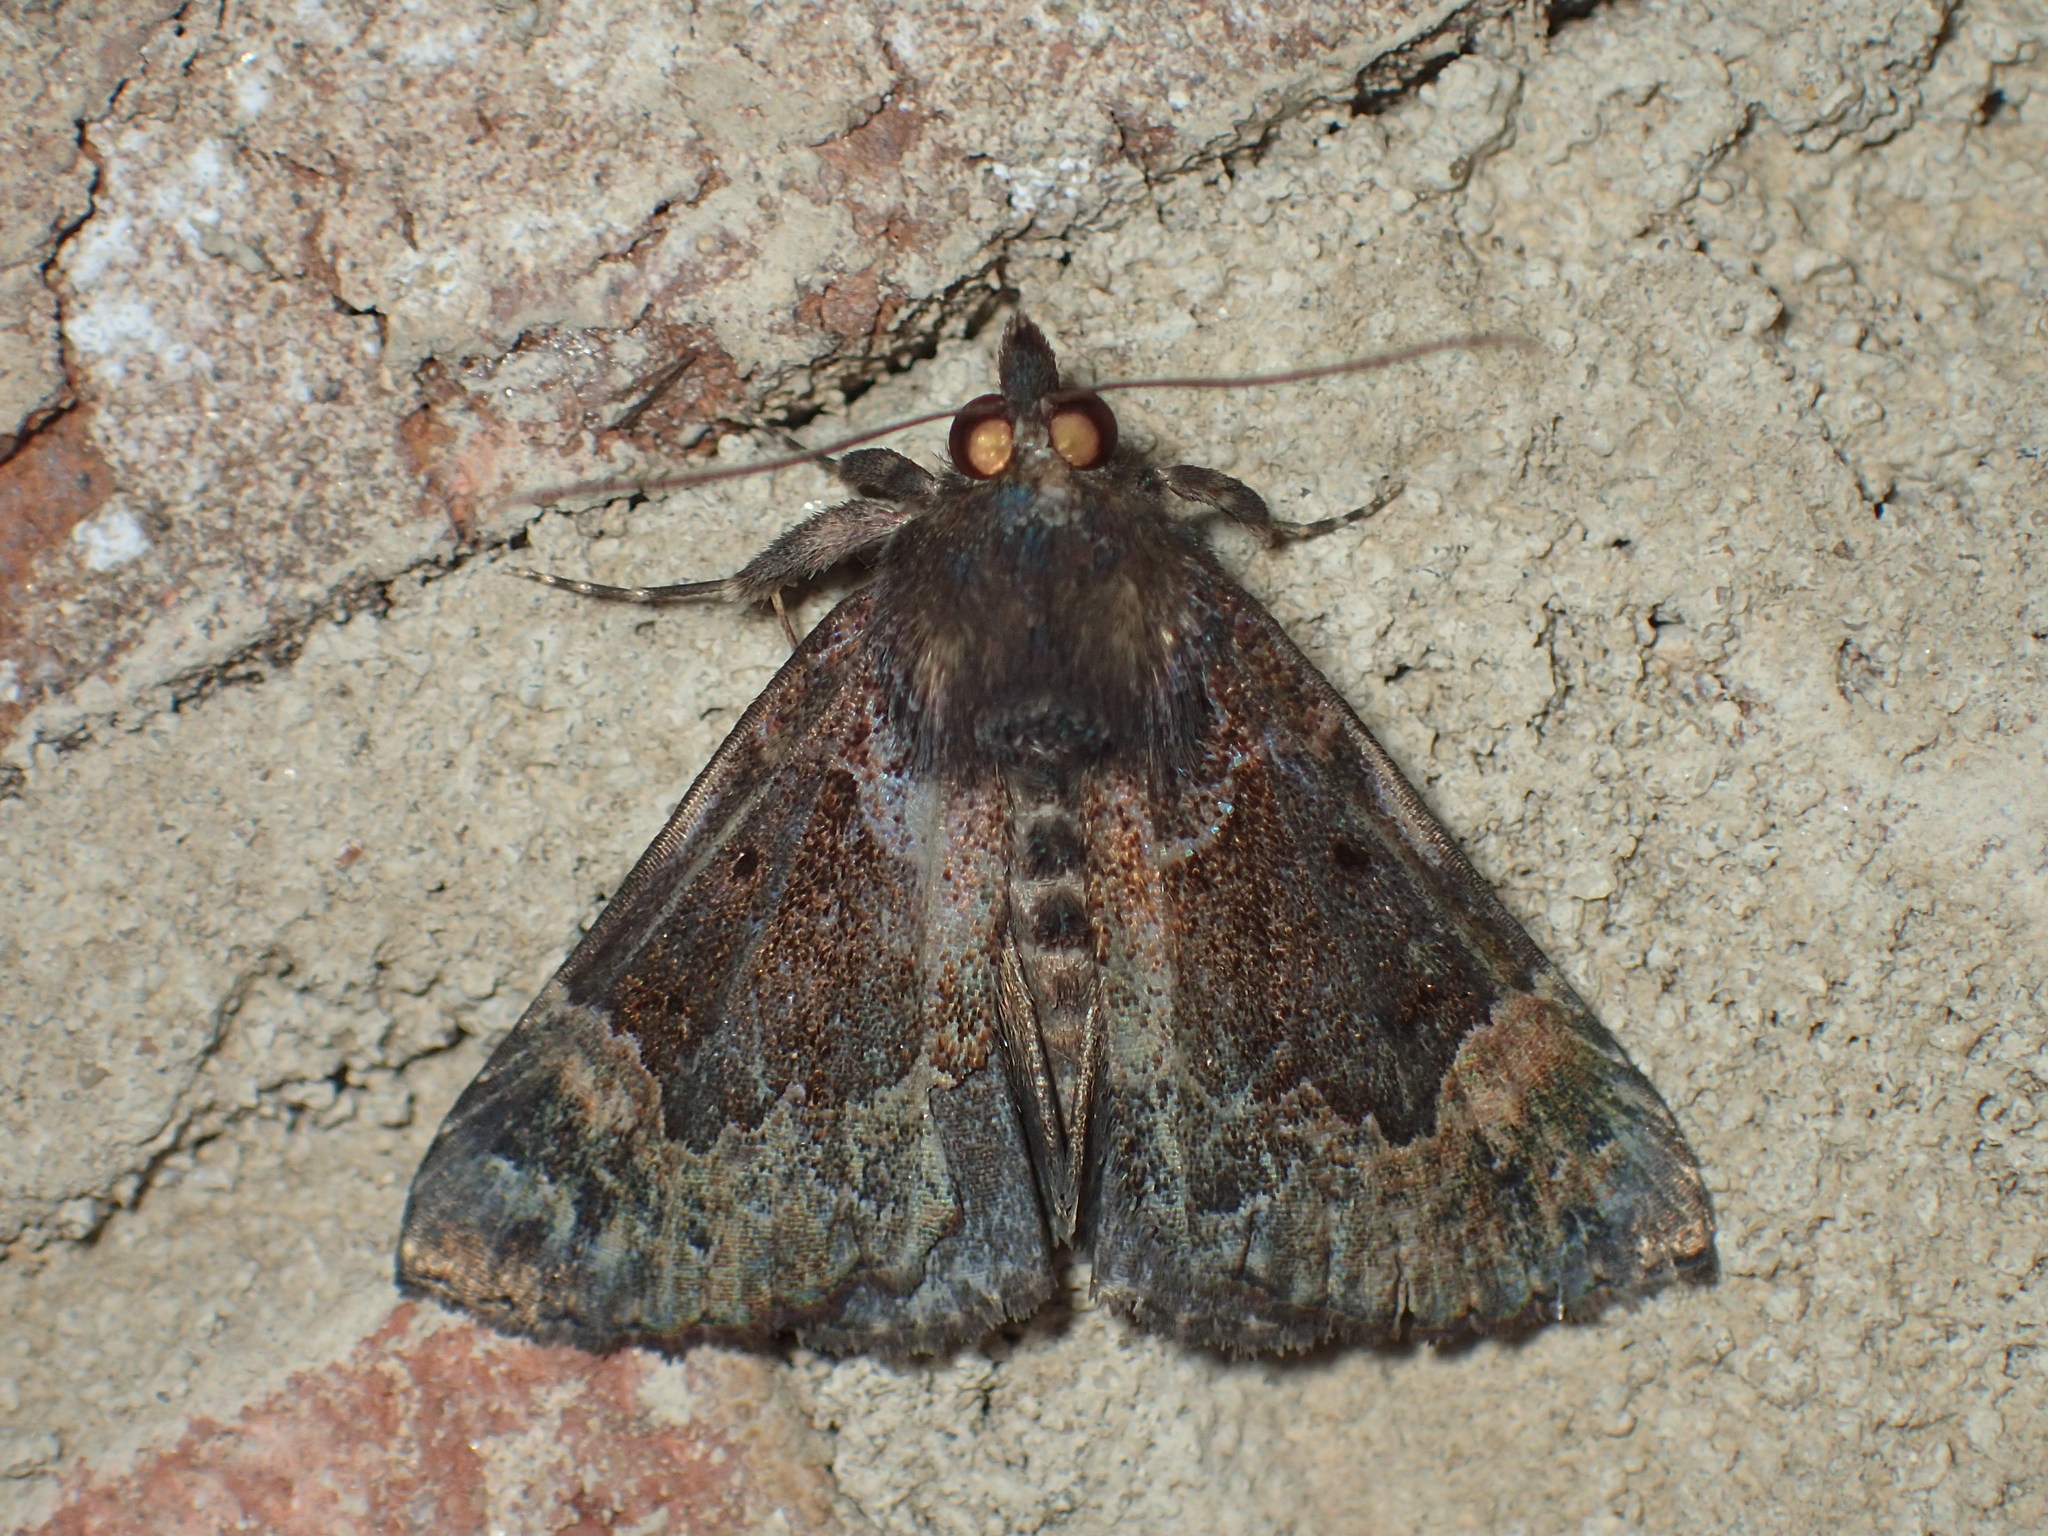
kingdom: Animalia
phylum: Arthropoda
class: Insecta
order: Lepidoptera
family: Erebidae
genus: Hypena
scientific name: Hypena palparia
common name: Mottled bomolocha moth
